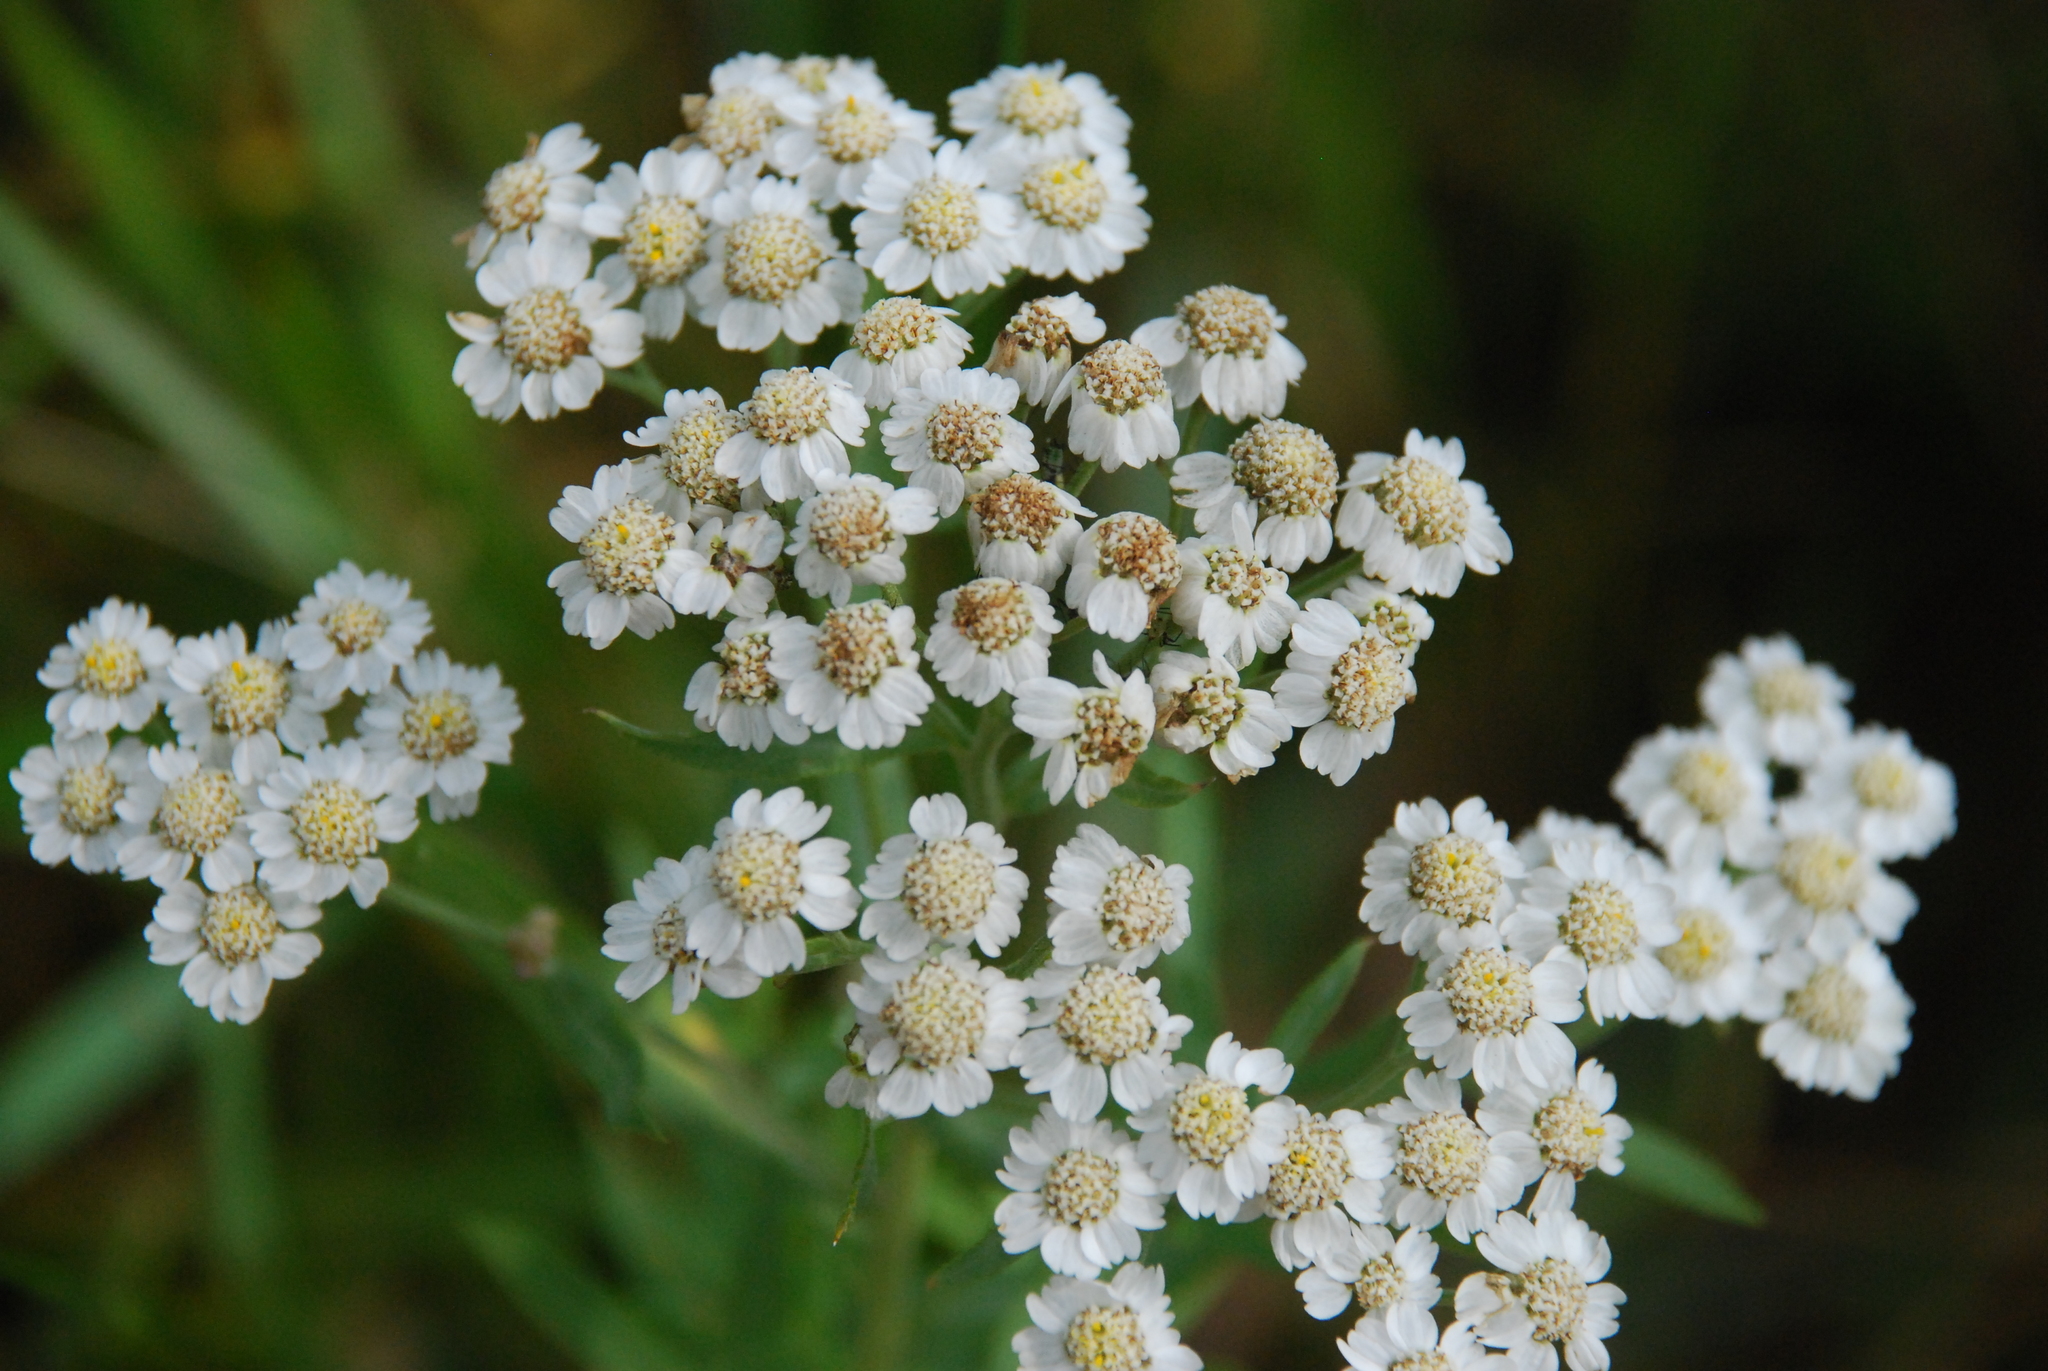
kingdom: Plantae
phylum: Tracheophyta
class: Magnoliopsida
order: Asterales
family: Asteraceae
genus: Achillea
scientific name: Achillea salicifolia
